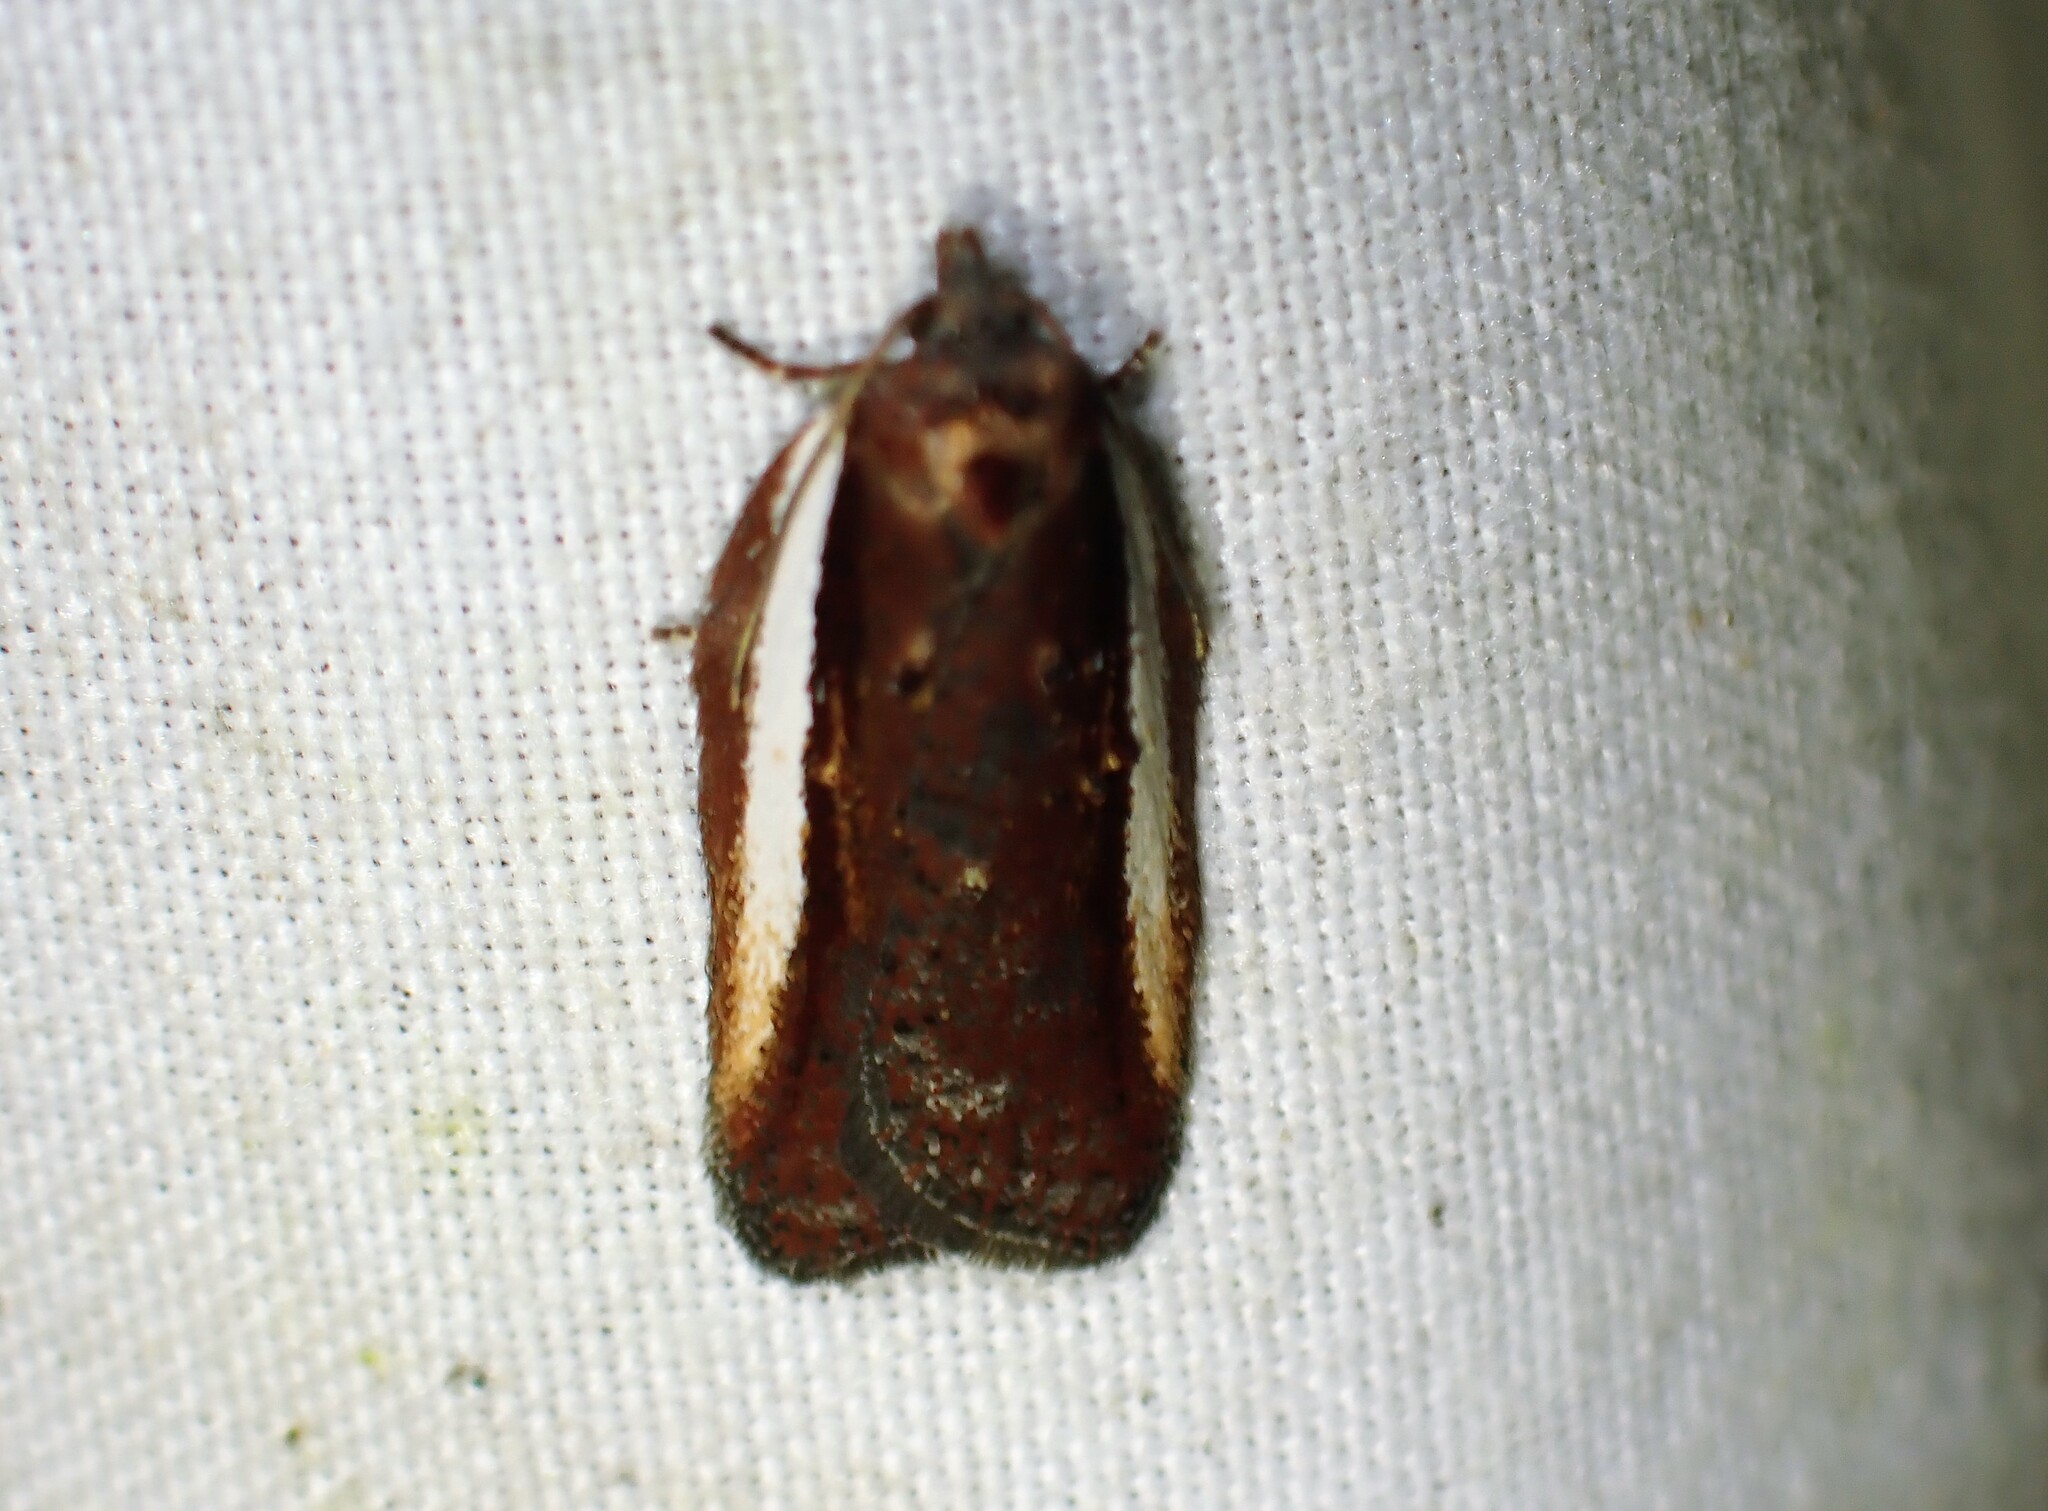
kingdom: Animalia
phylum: Arthropoda
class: Insecta
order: Lepidoptera
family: Tortricidae
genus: Acleris
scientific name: Acleris celiana
